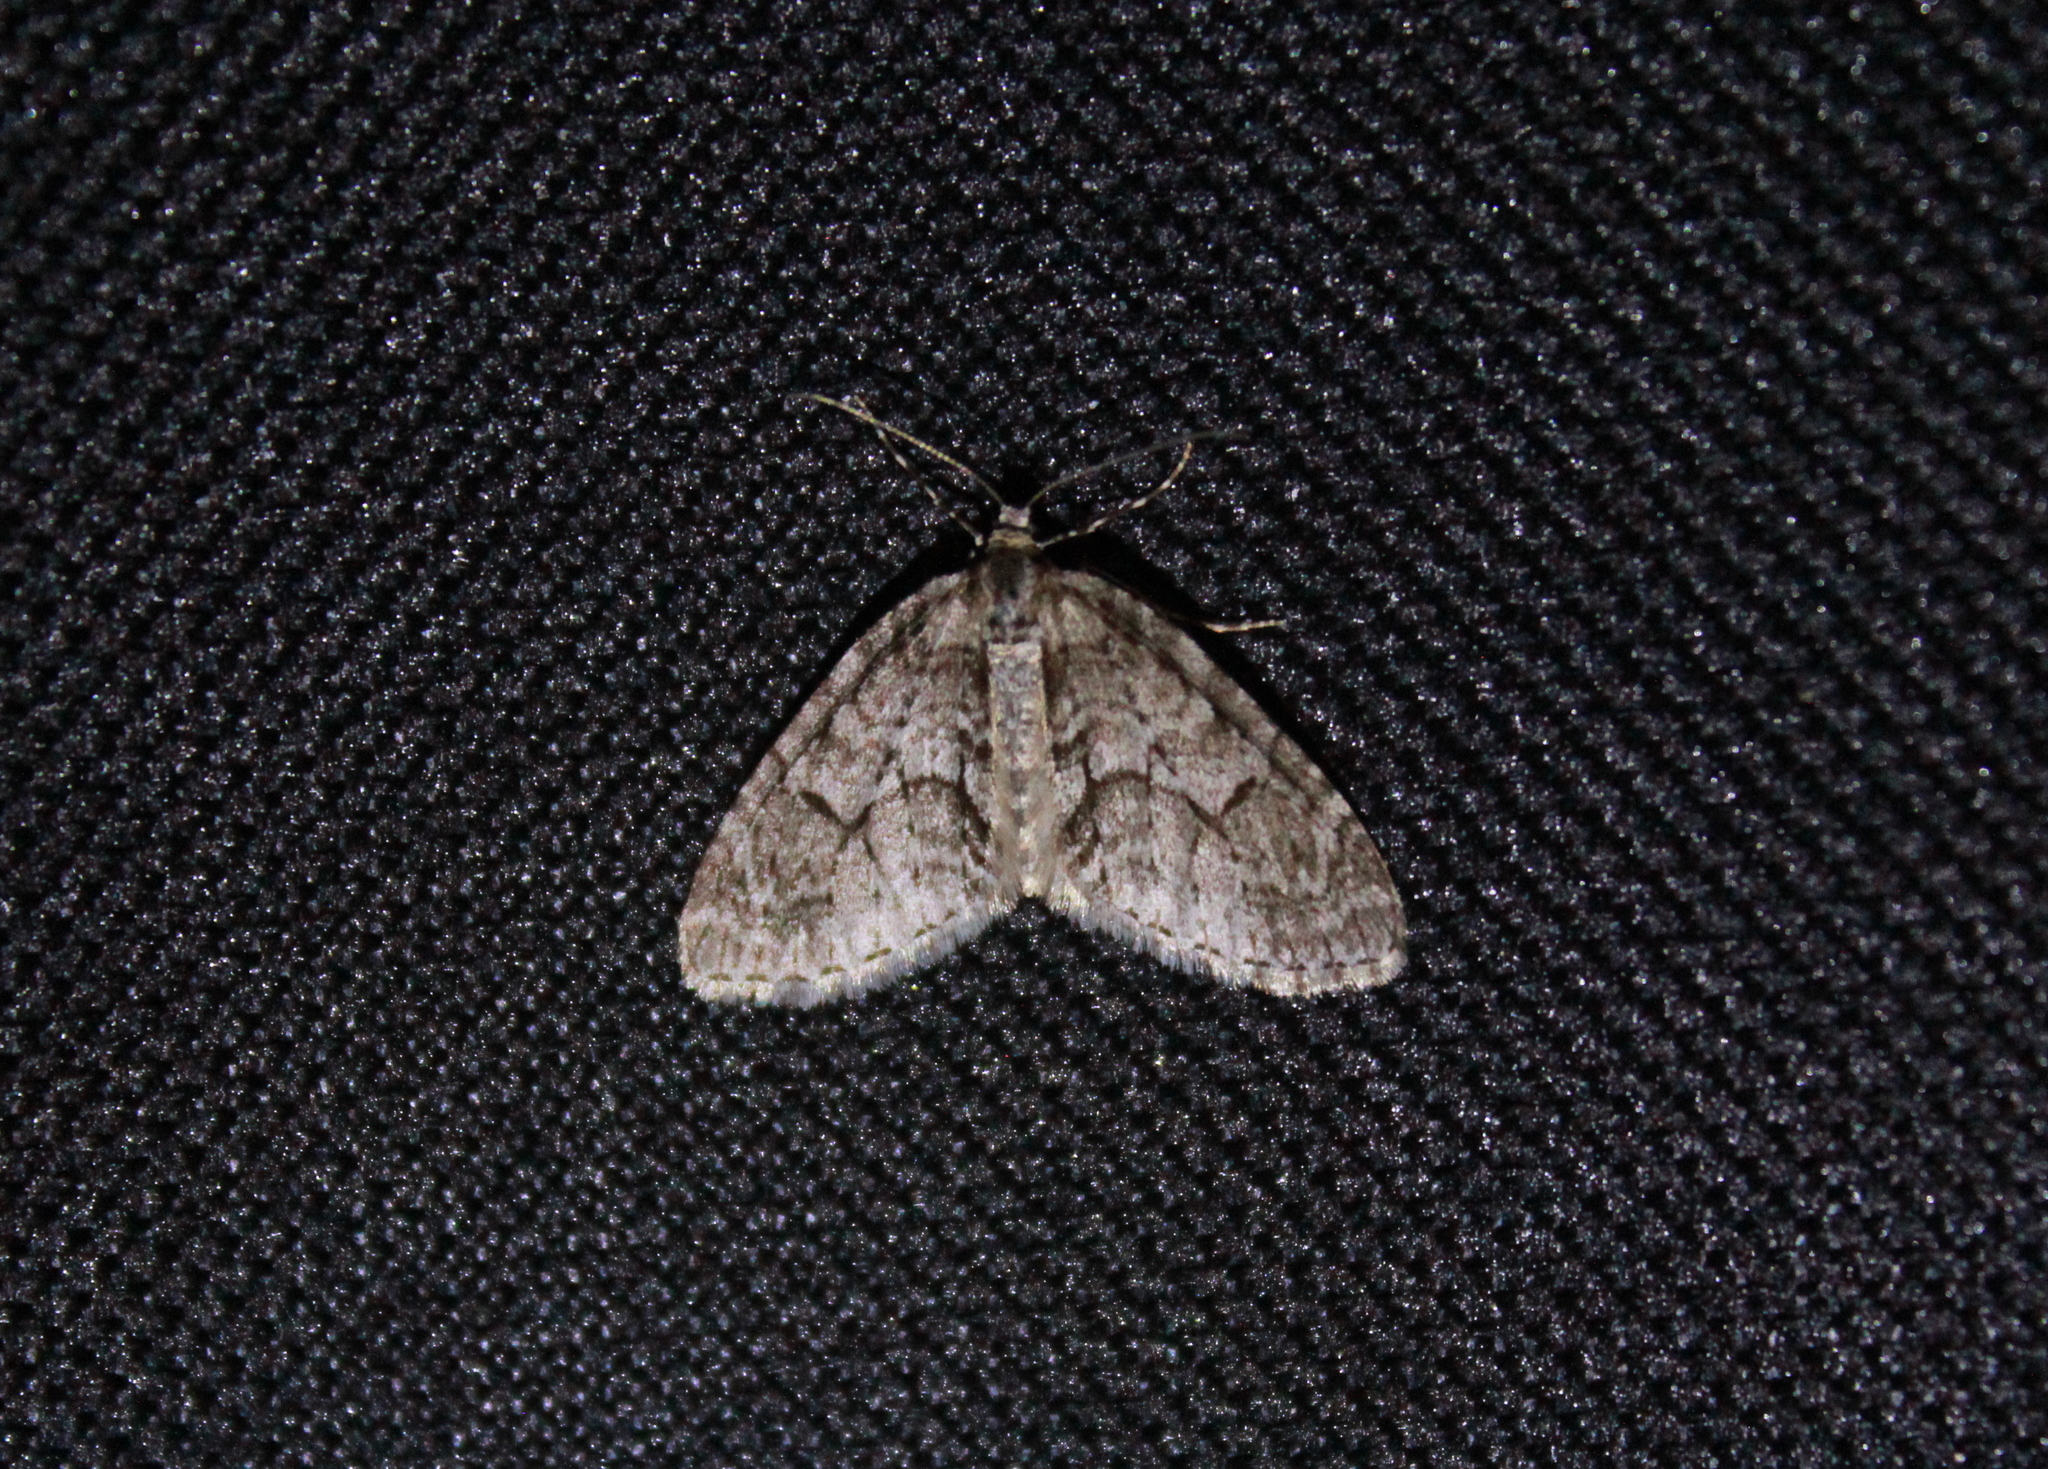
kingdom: Animalia
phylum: Arthropoda
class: Insecta
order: Lepidoptera
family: Geometridae
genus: Cladara
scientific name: Cladara limitaria
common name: Mottled gray carpet
